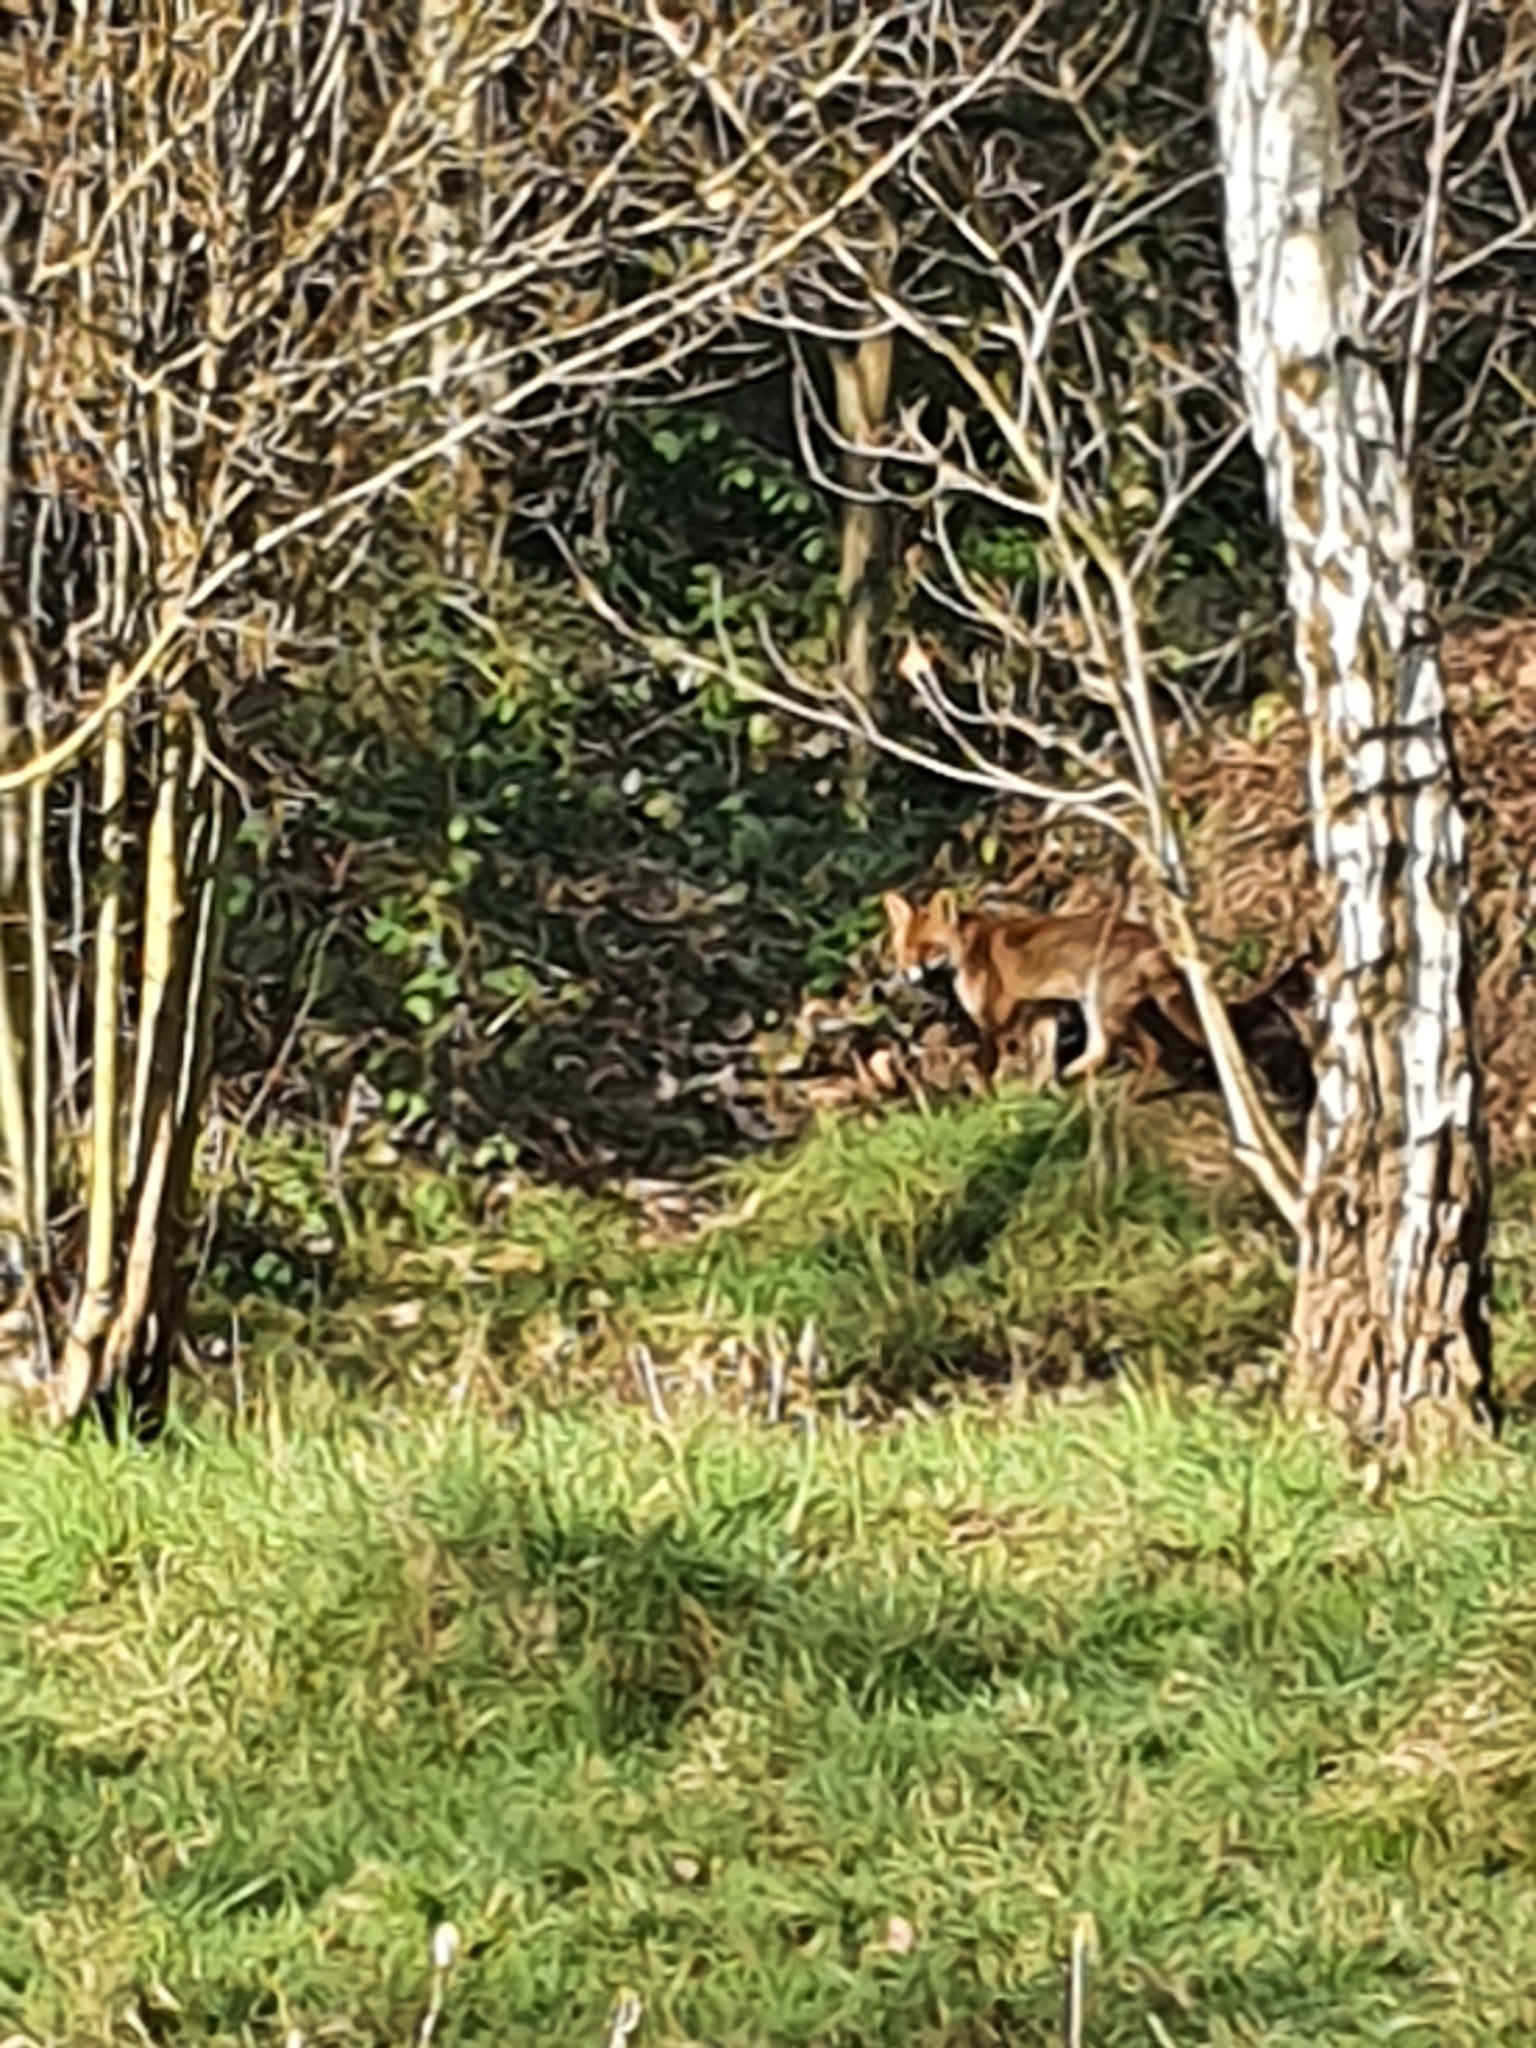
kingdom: Animalia
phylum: Chordata
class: Mammalia
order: Carnivora
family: Canidae
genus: Vulpes
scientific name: Vulpes vulpes
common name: Red fox
